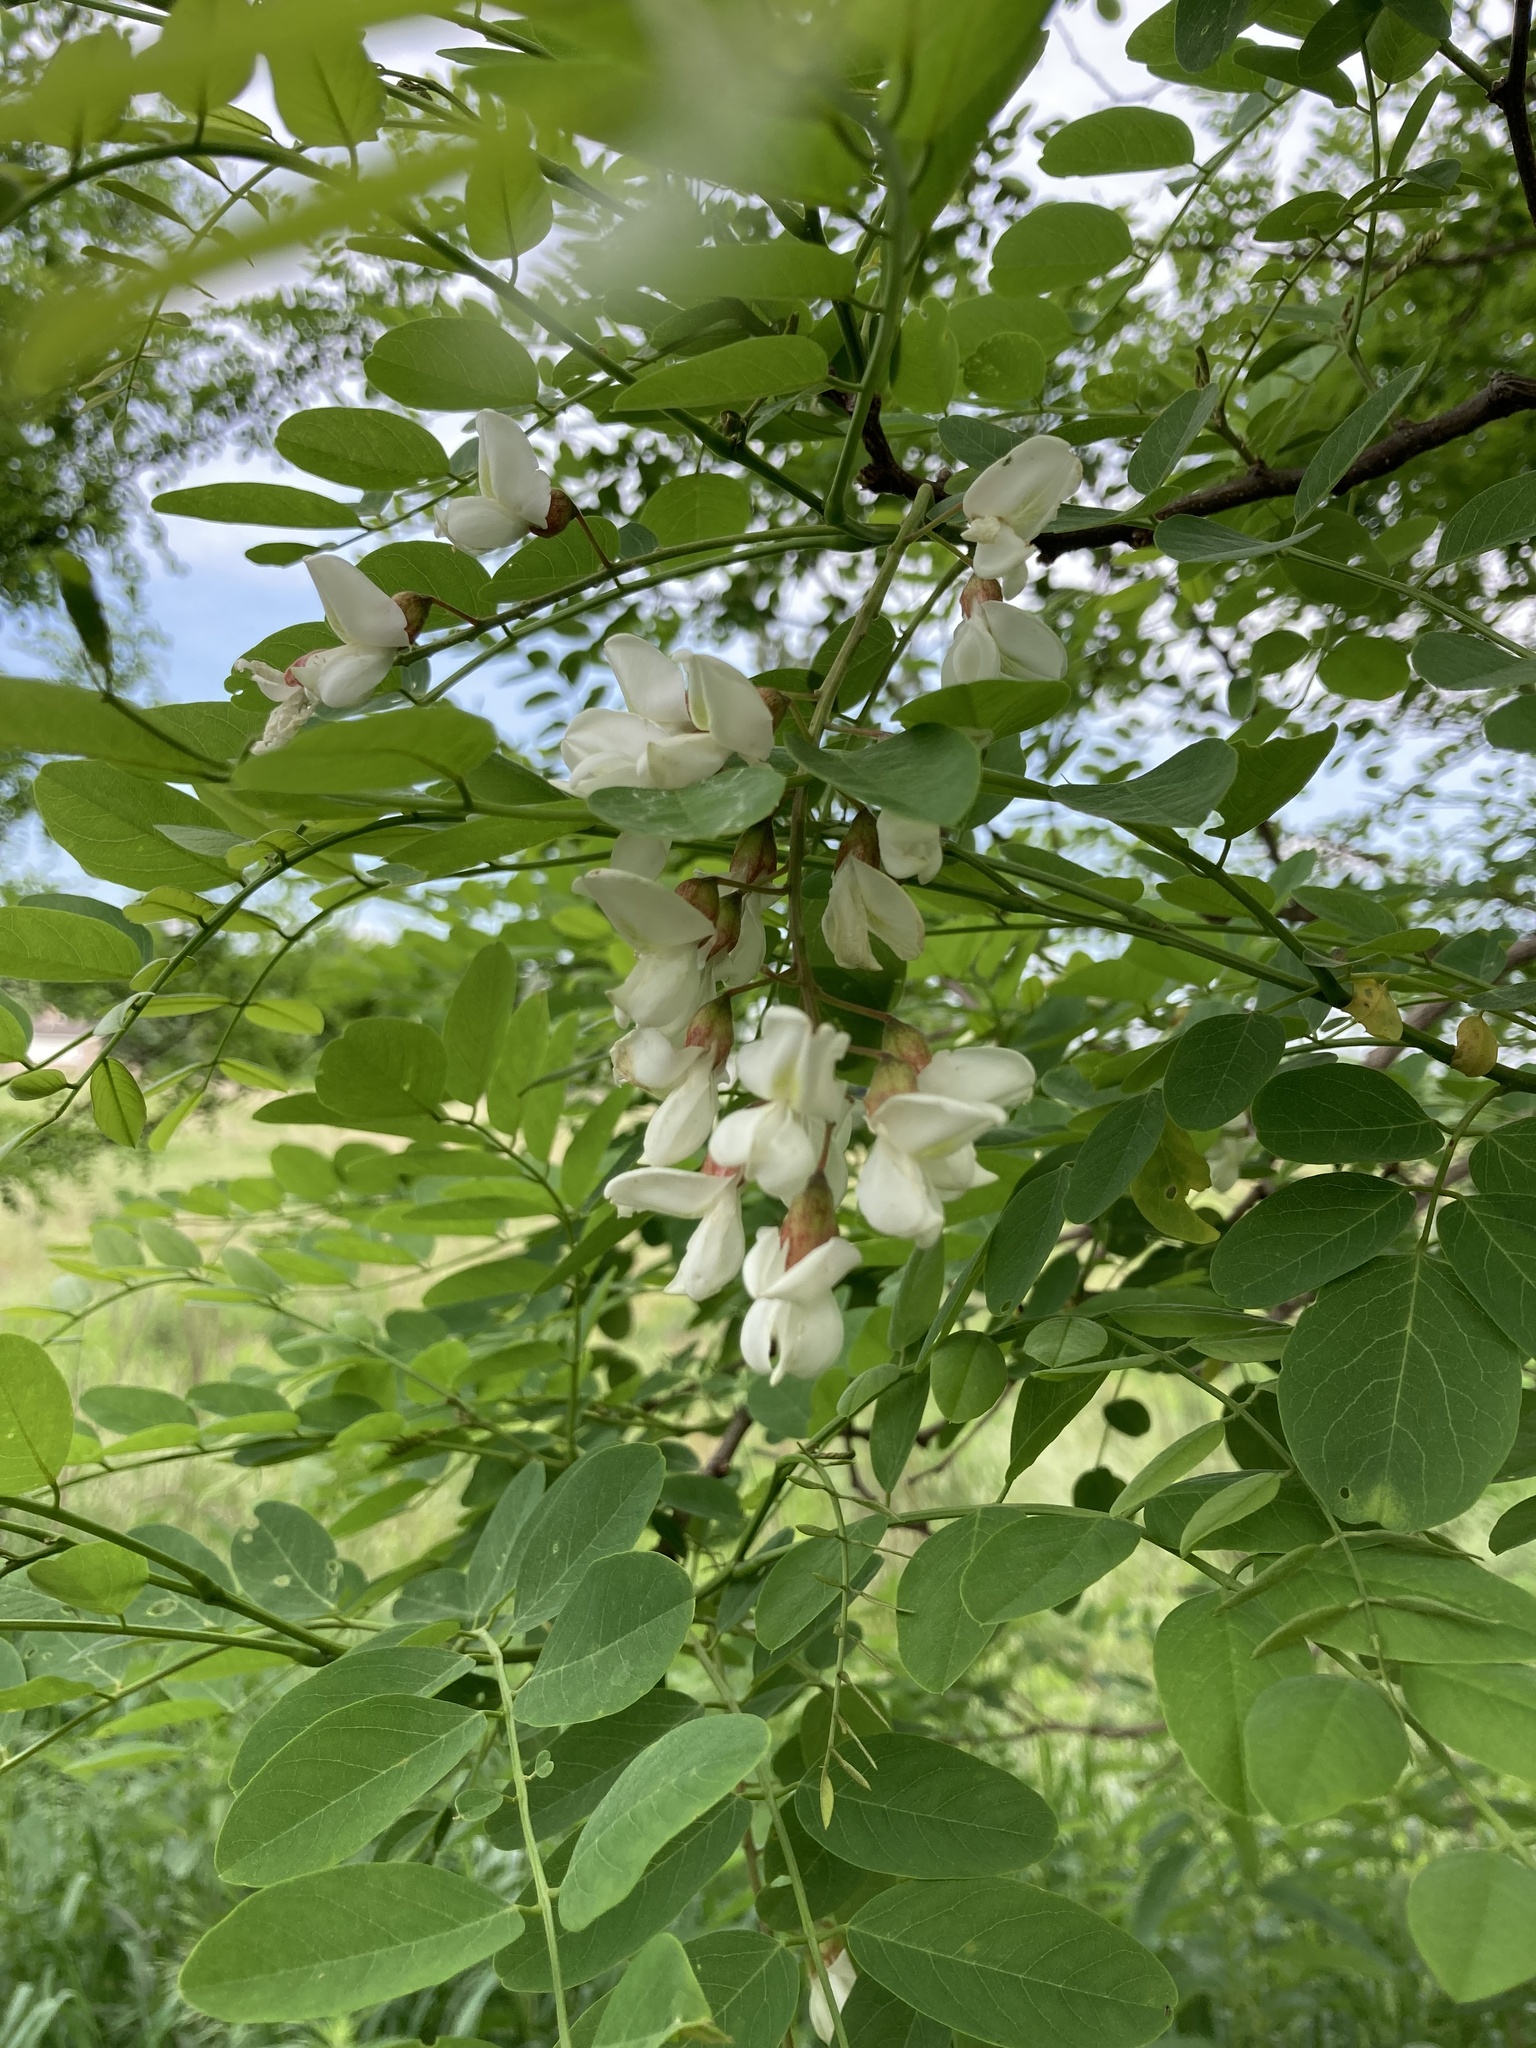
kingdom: Plantae
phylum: Tracheophyta
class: Magnoliopsida
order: Fabales
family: Fabaceae
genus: Robinia
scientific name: Robinia pseudoacacia
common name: Black locust
